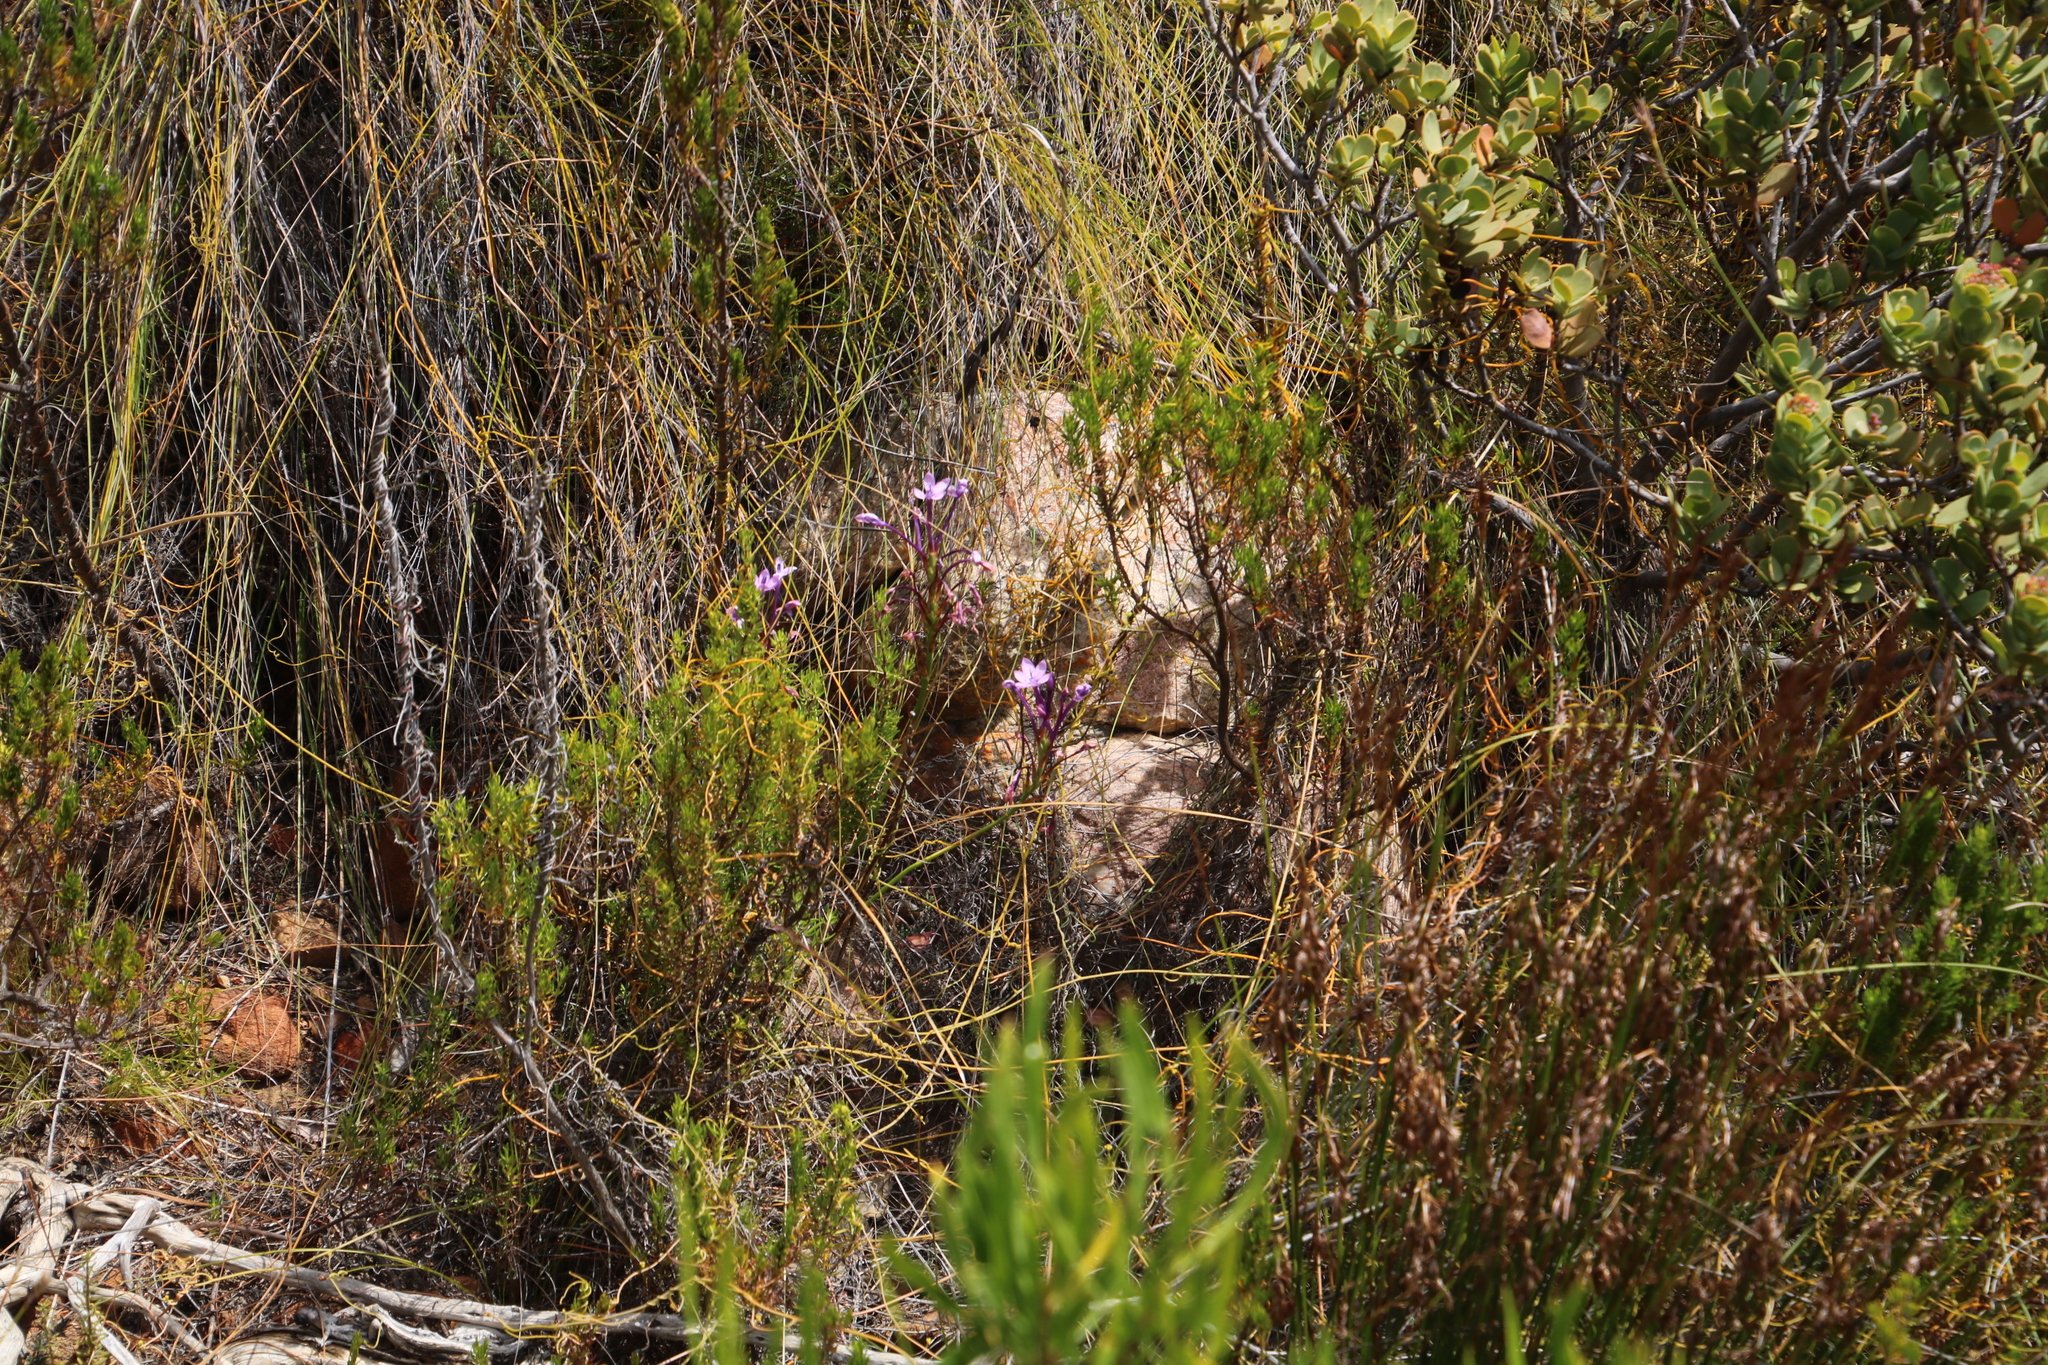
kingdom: Plantae
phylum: Tracheophyta
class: Liliopsida
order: Asparagales
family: Iridaceae
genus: Thereianthus
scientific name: Thereianthus bracteolatus
